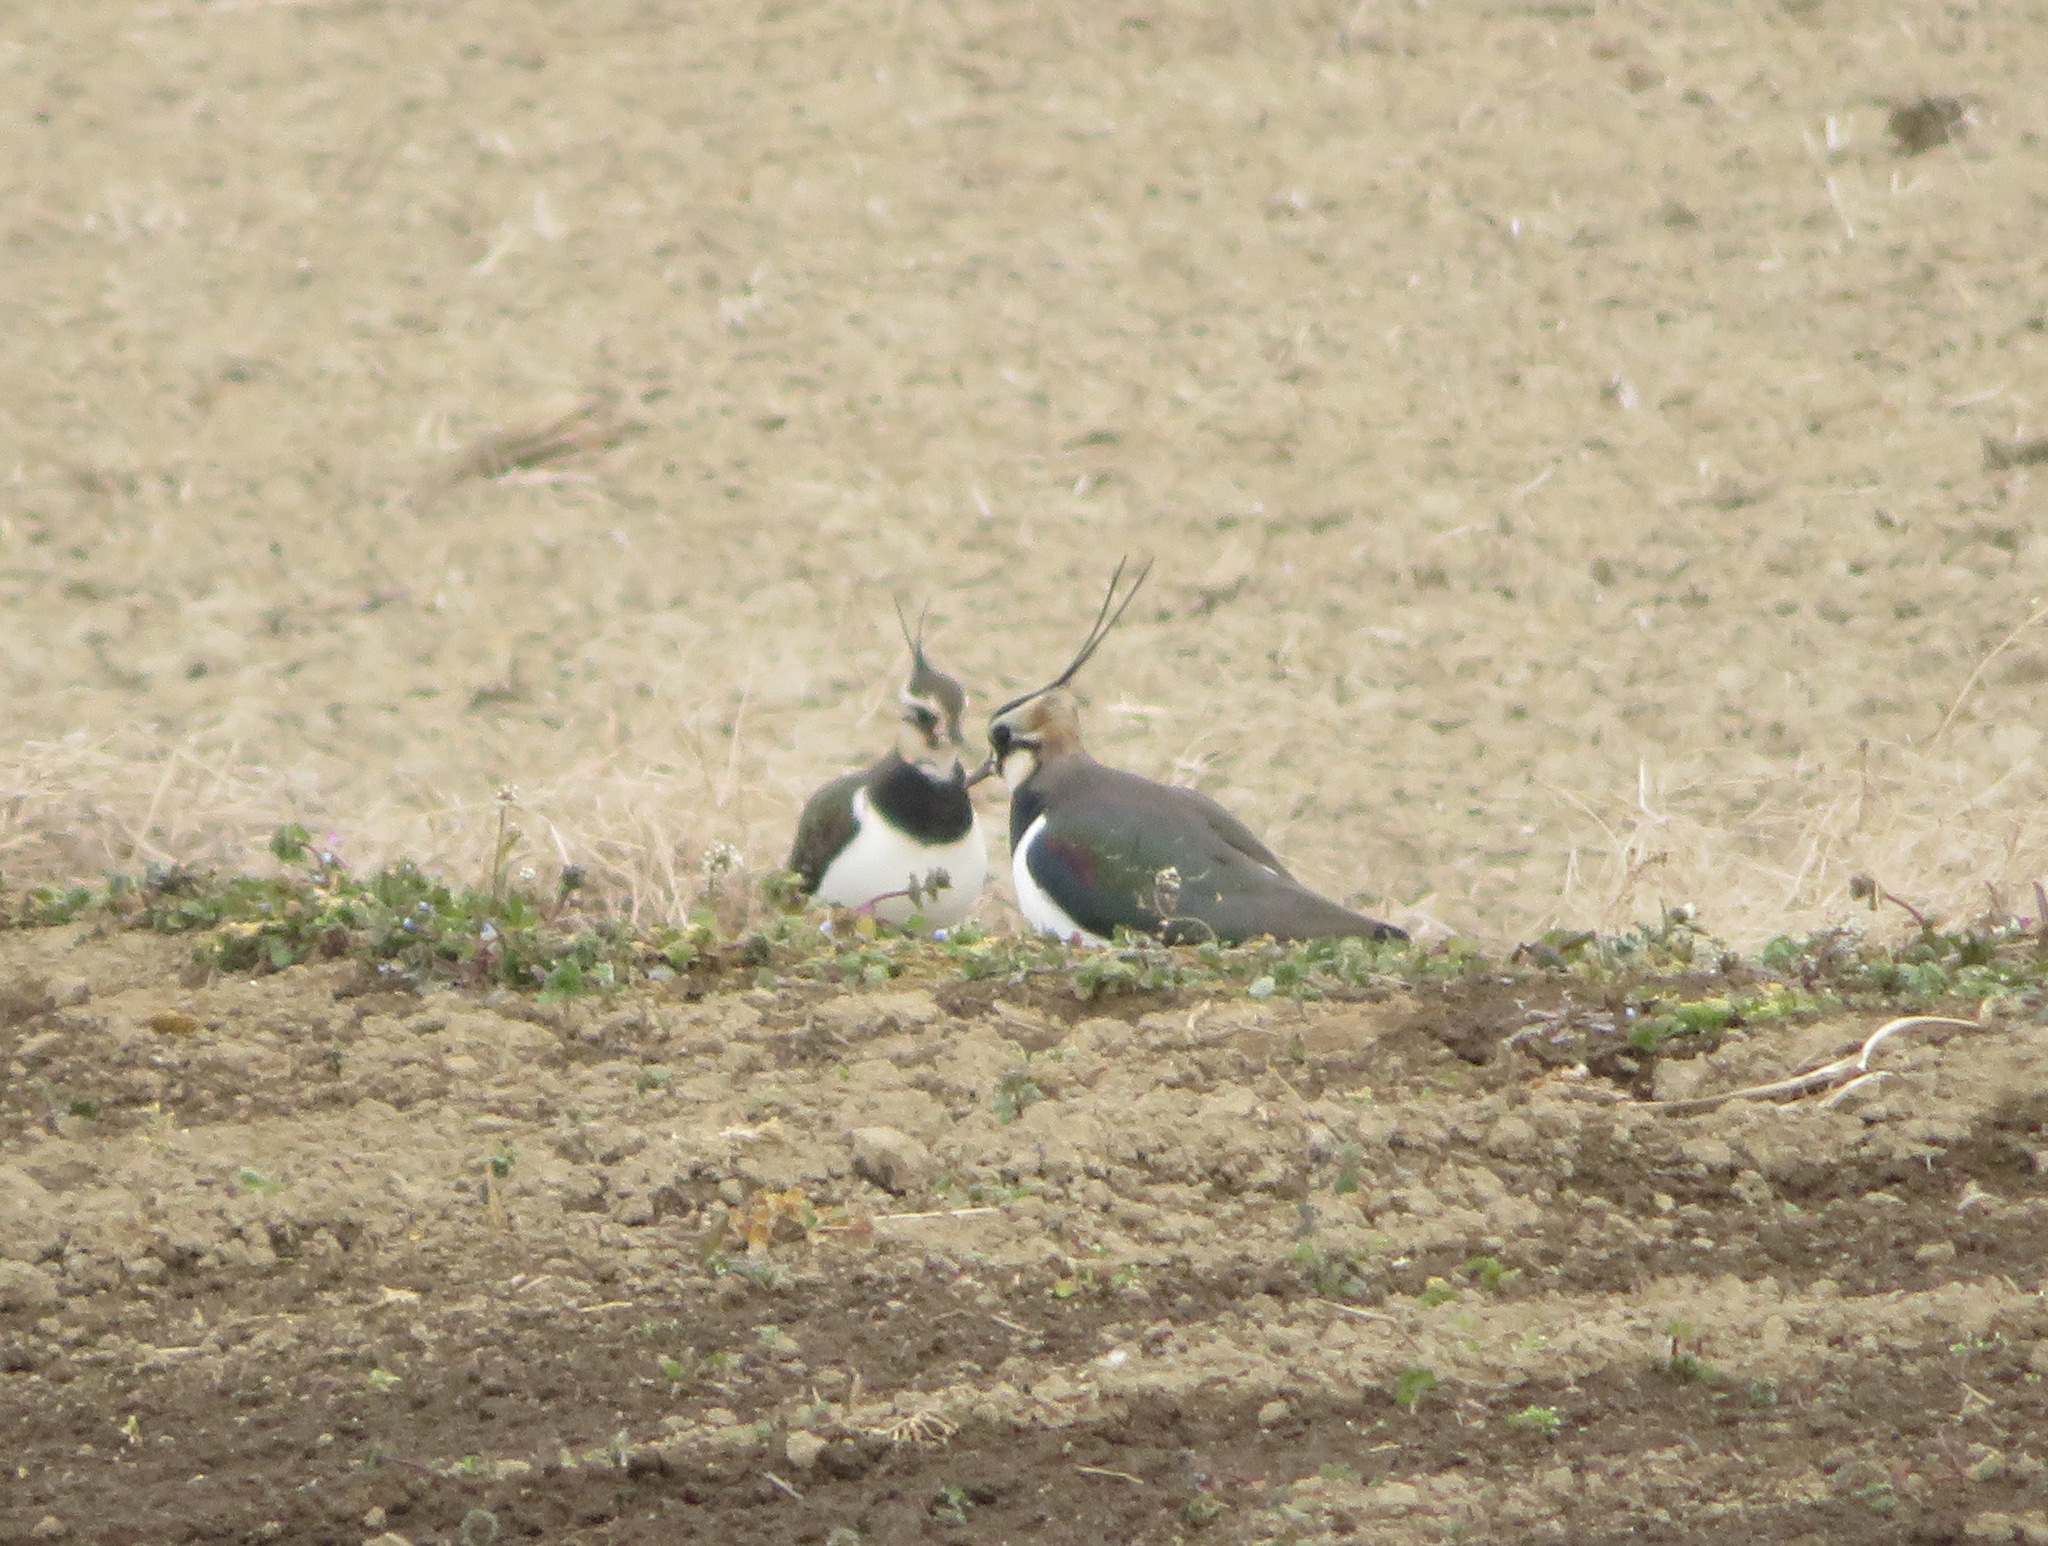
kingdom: Animalia
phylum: Chordata
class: Aves
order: Charadriiformes
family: Charadriidae
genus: Vanellus
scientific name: Vanellus vanellus
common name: Northern lapwing
